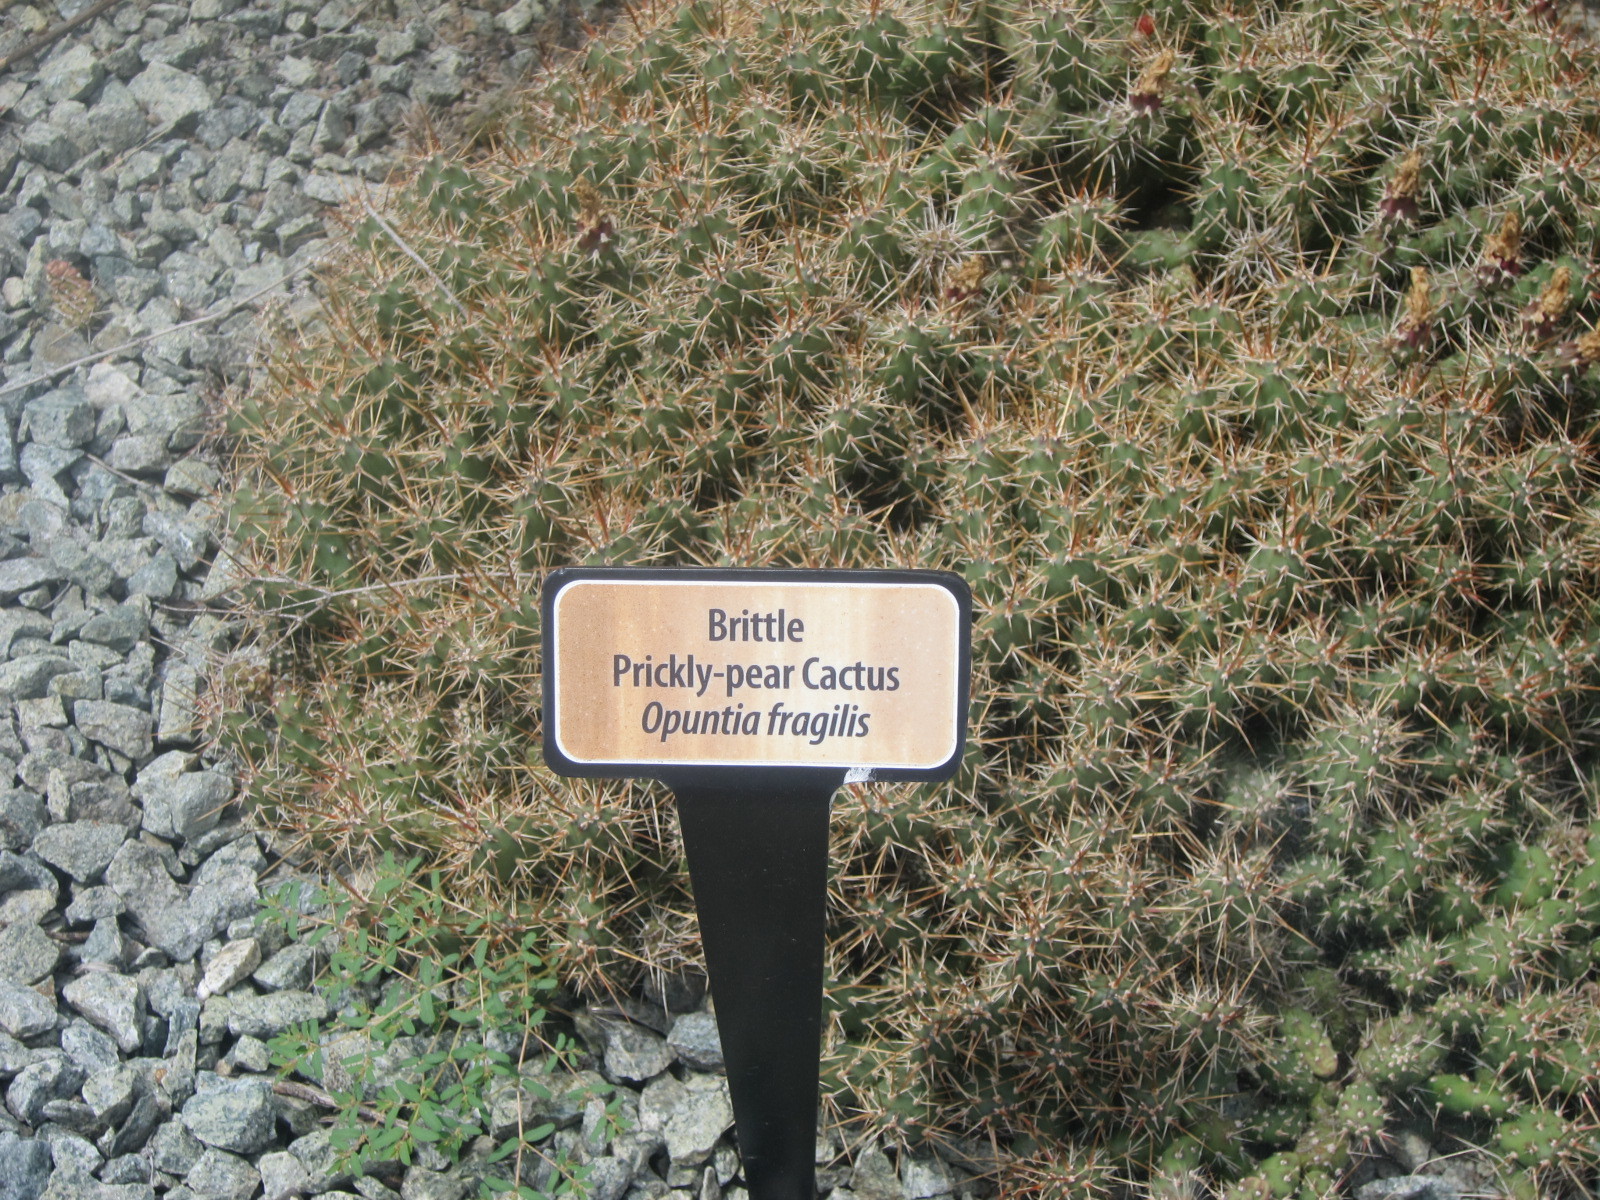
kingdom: Plantae
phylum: Tracheophyta
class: Magnoliopsida
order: Caryophyllales
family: Cactaceae
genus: Opuntia
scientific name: Opuntia fragilis
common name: Brittle cactus
